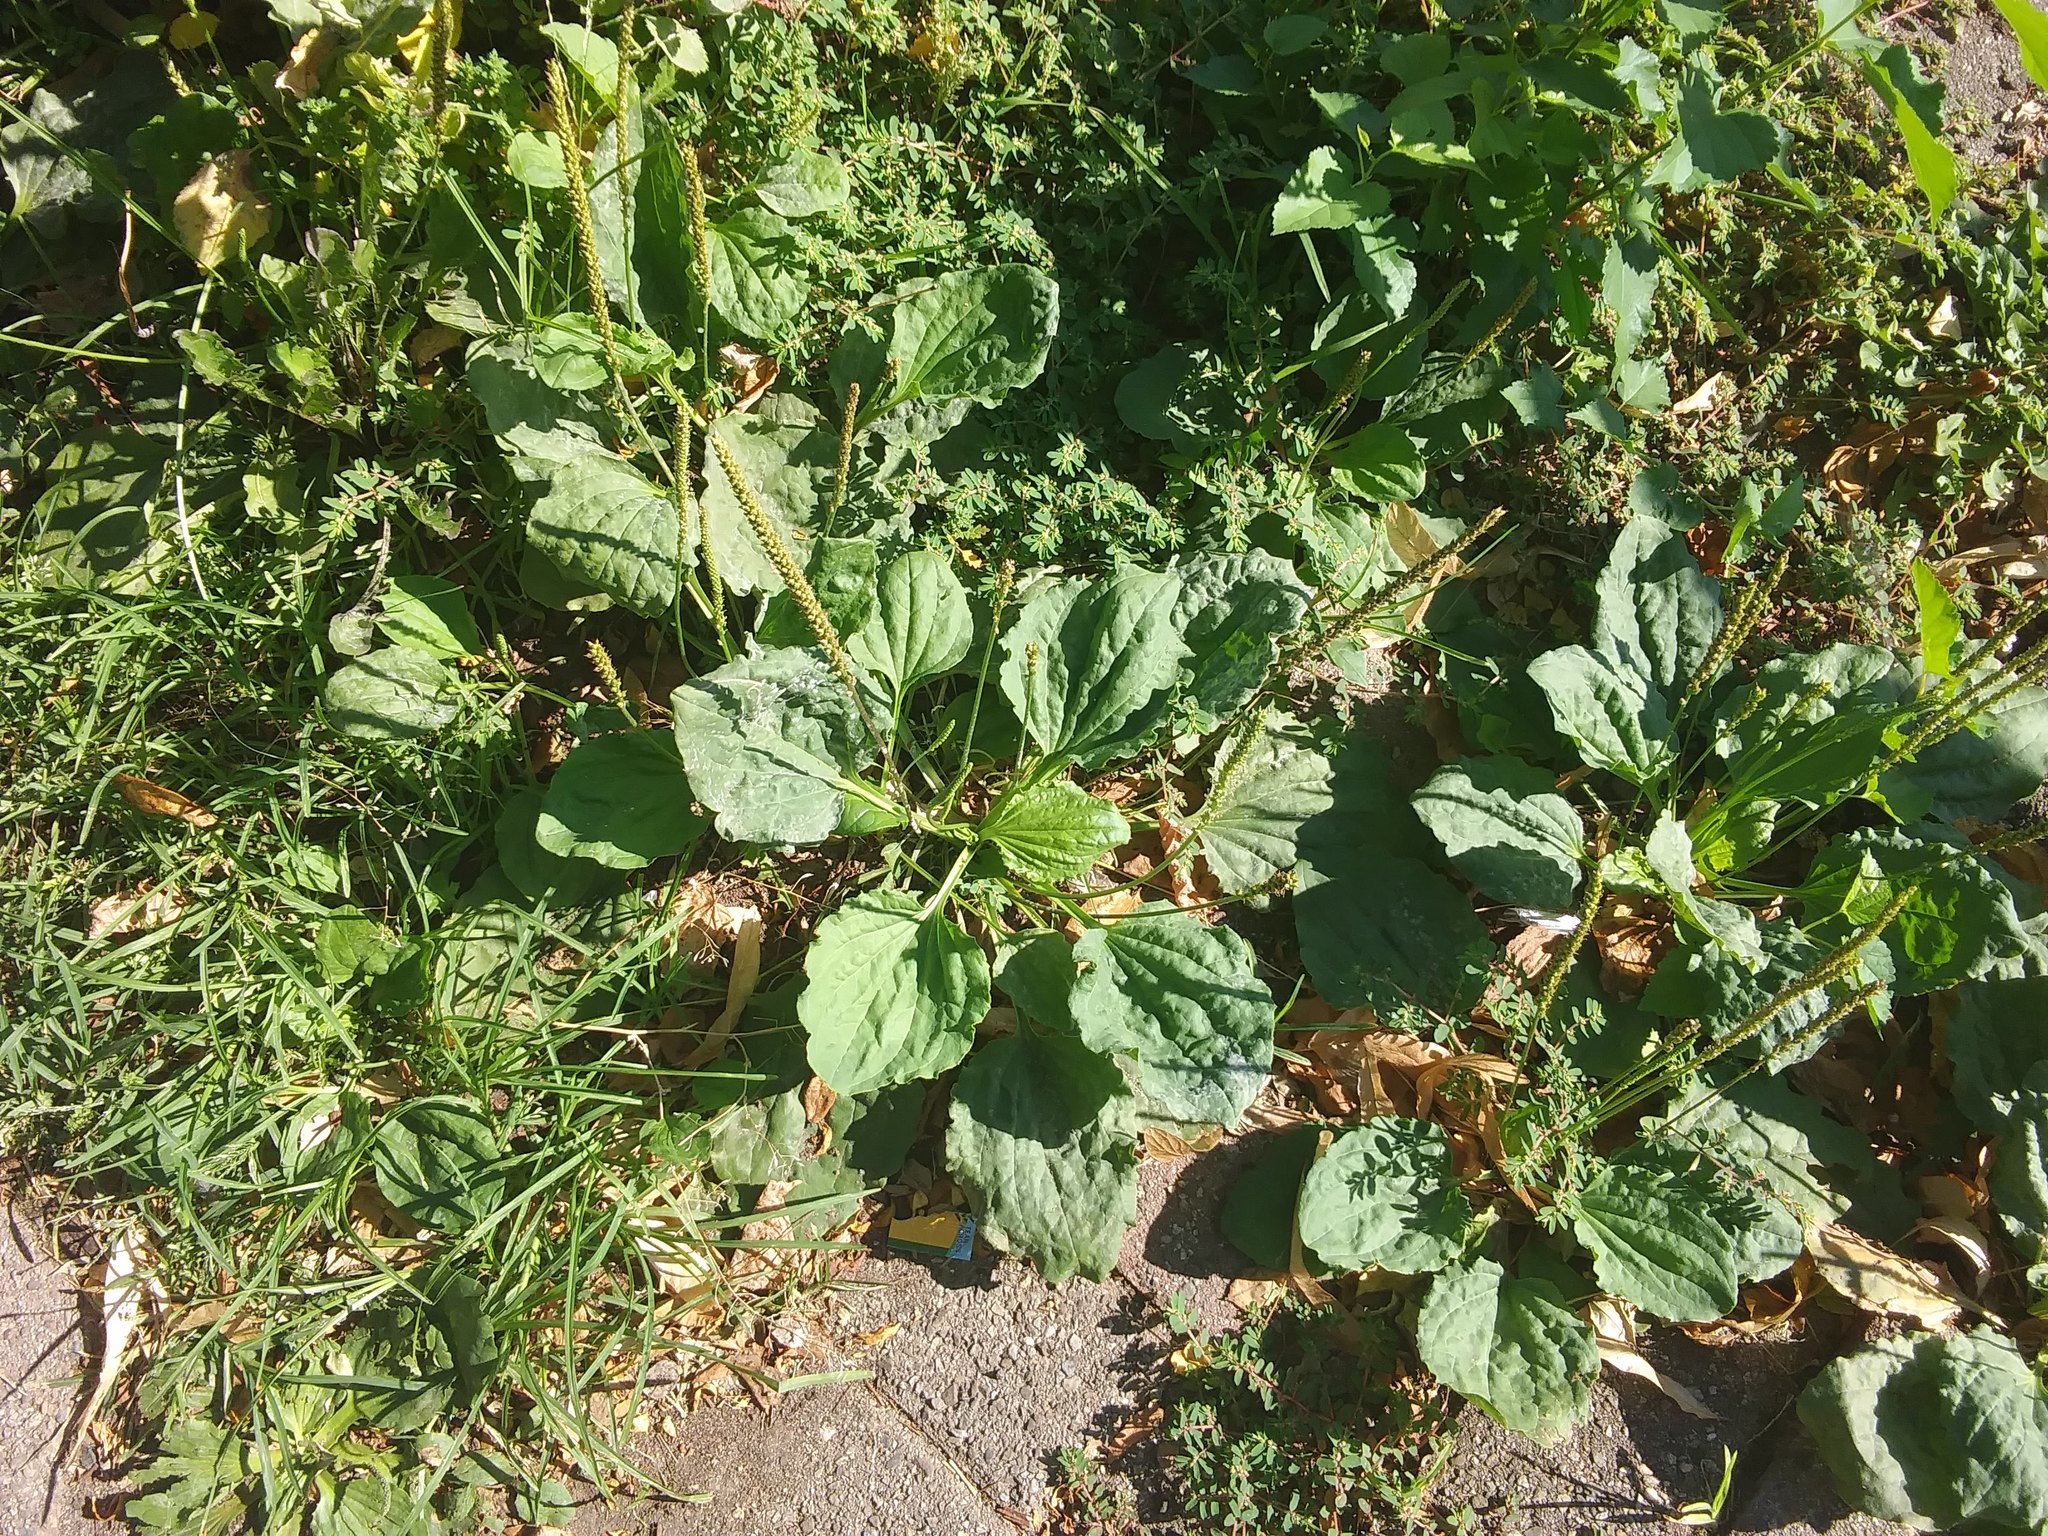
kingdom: Plantae
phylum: Tracheophyta
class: Magnoliopsida
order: Lamiales
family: Plantaginaceae
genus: Plantago
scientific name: Plantago major
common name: Common plantain
